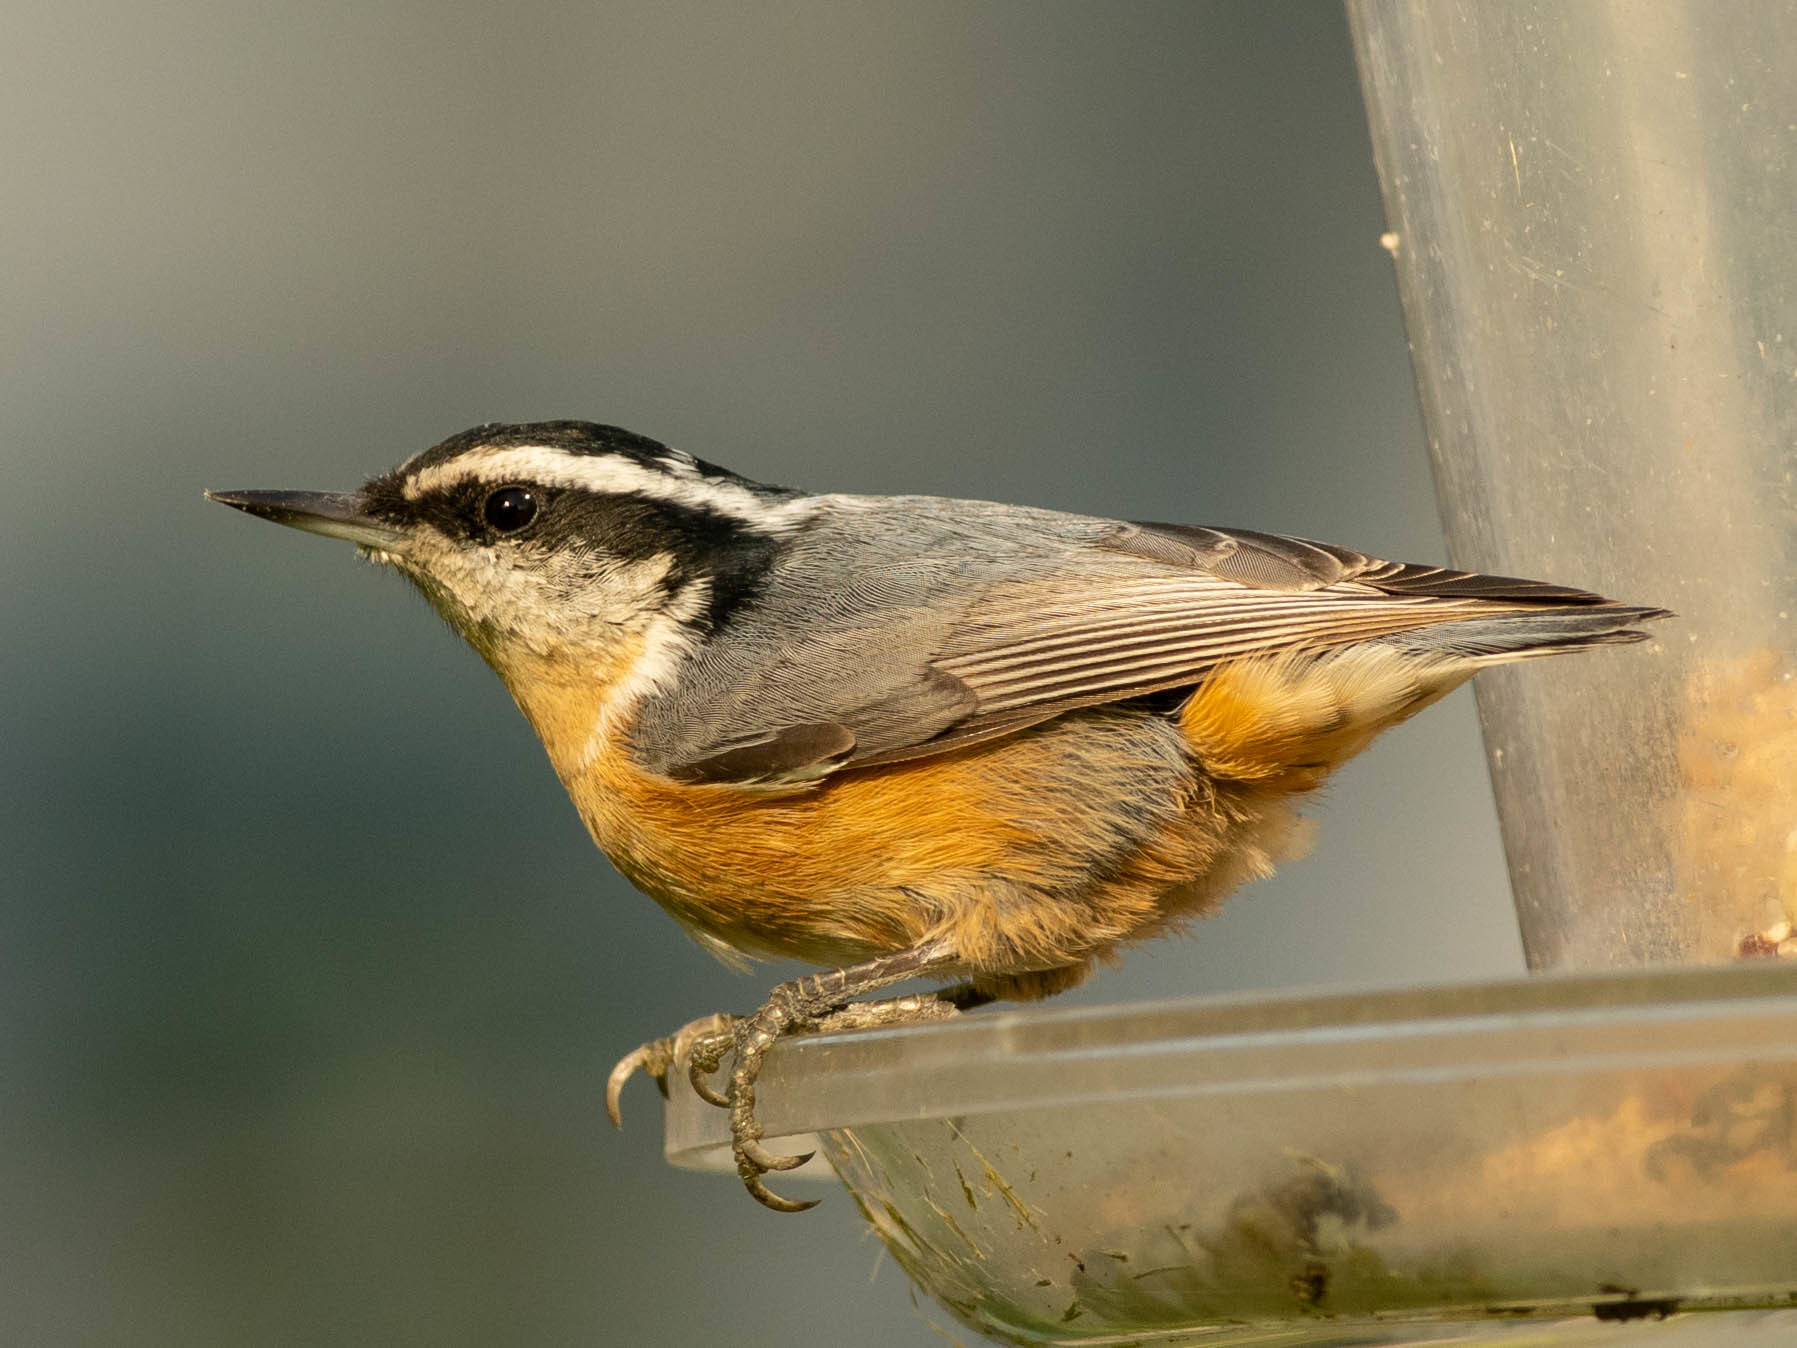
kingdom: Animalia
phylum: Chordata
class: Aves
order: Passeriformes
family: Sittidae
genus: Sitta
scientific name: Sitta canadensis
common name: Red-breasted nuthatch
